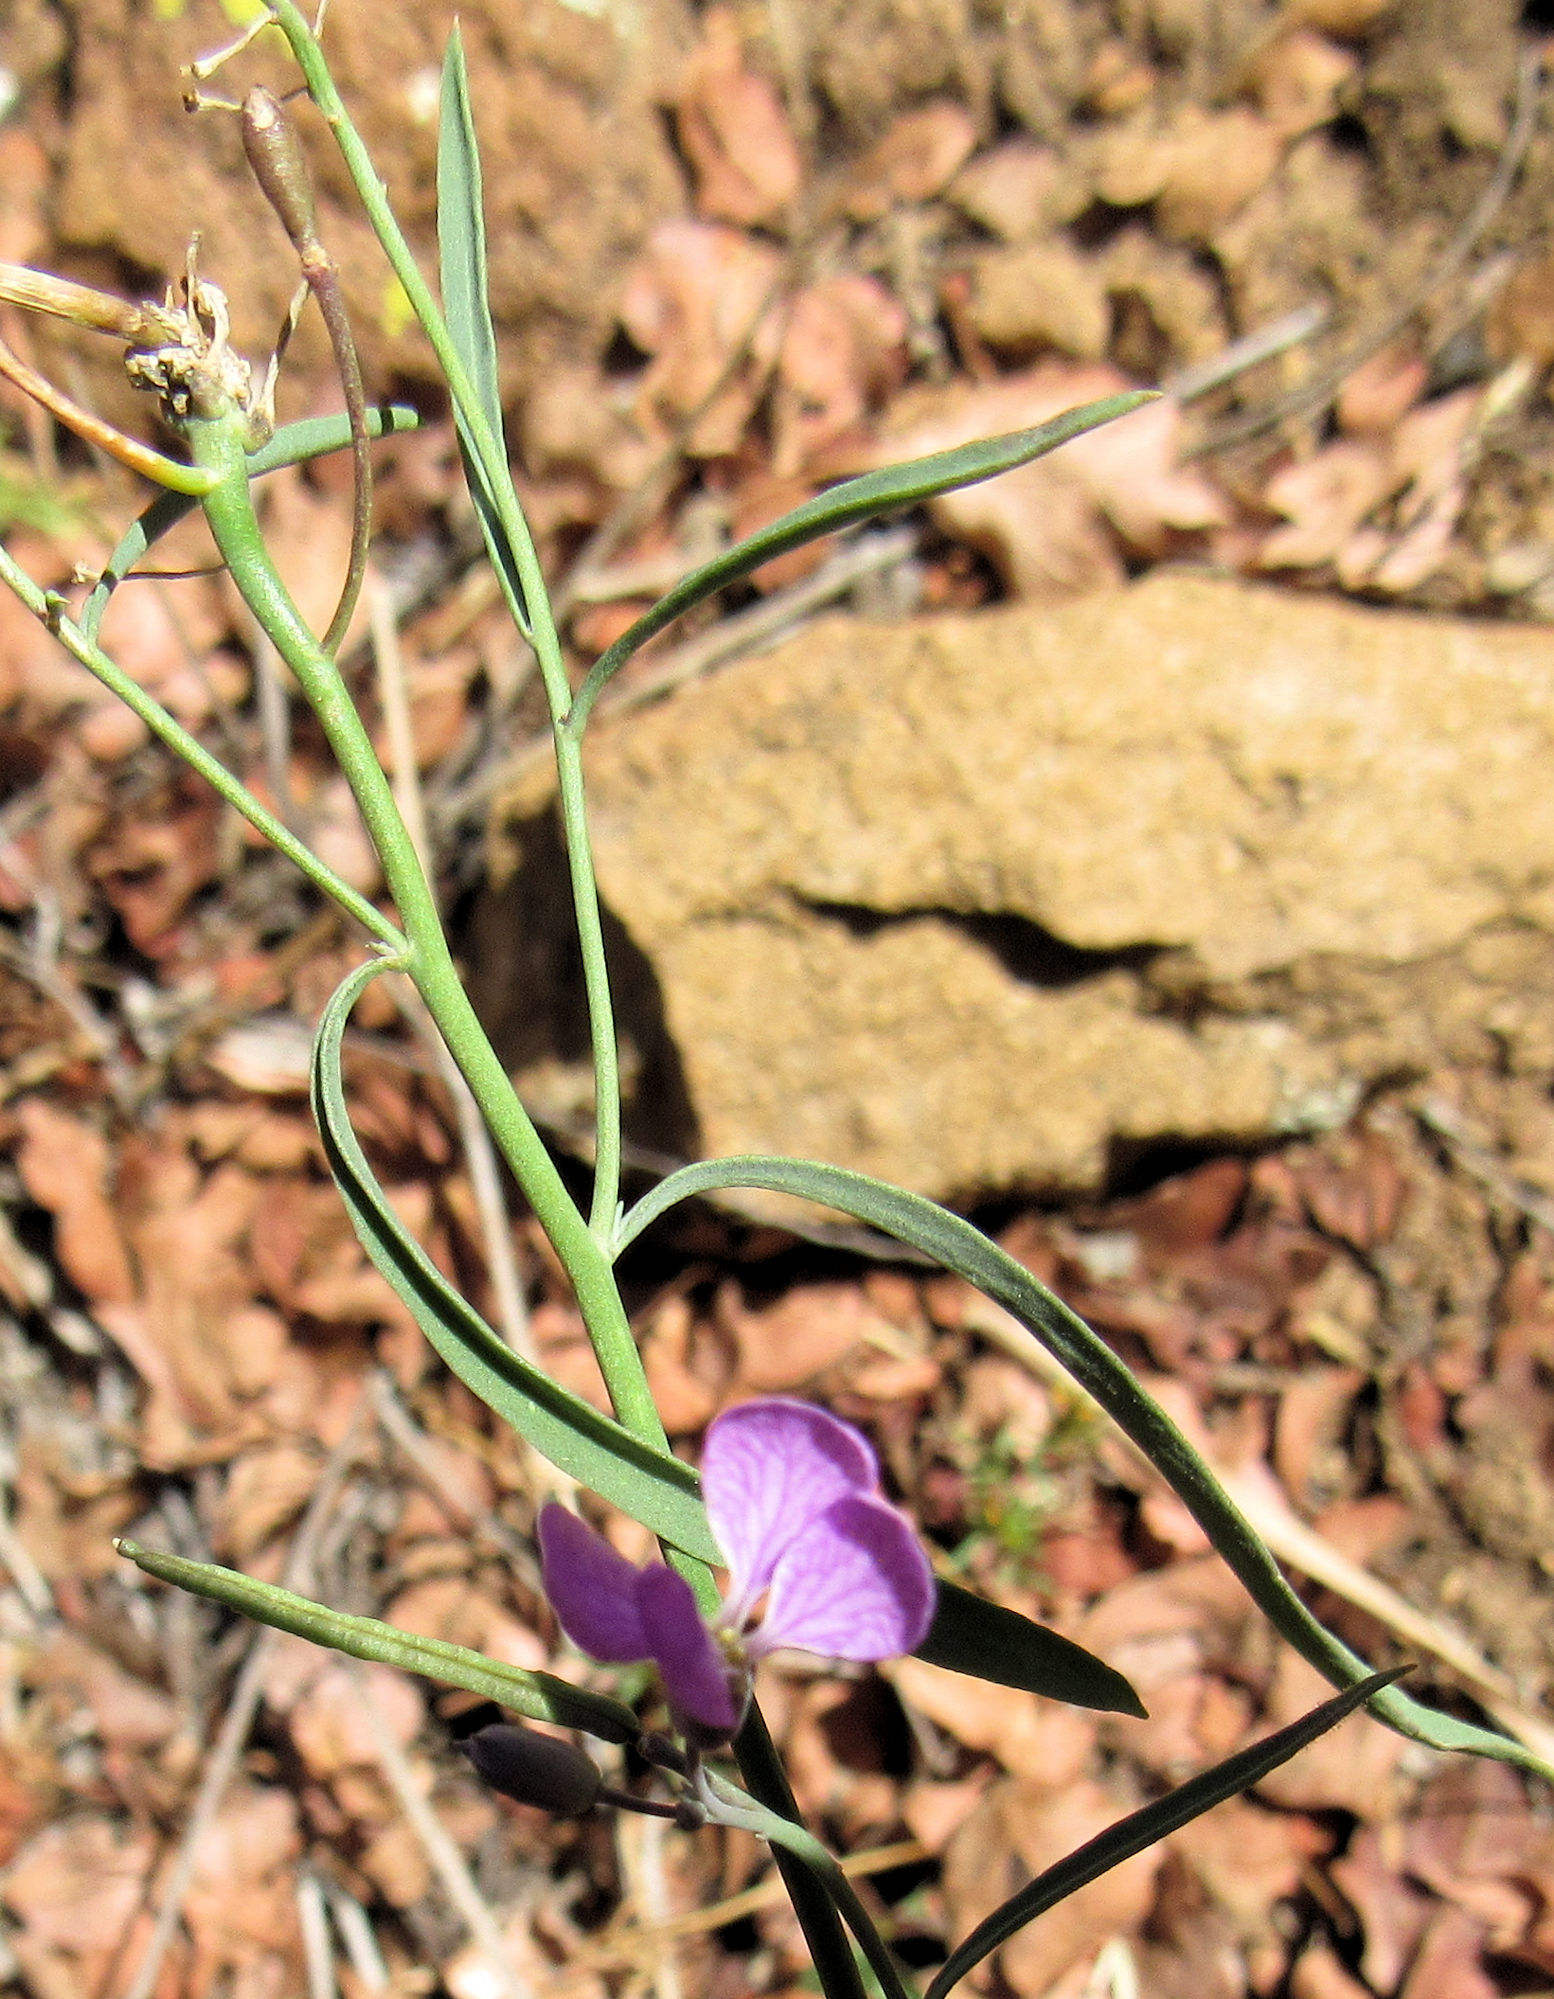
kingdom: Plantae
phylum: Tracheophyta
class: Magnoliopsida
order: Brassicales
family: Brassicaceae
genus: Hesperidanthus
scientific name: Hesperidanthus linearifolius
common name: Slim-leaf plains mustard
